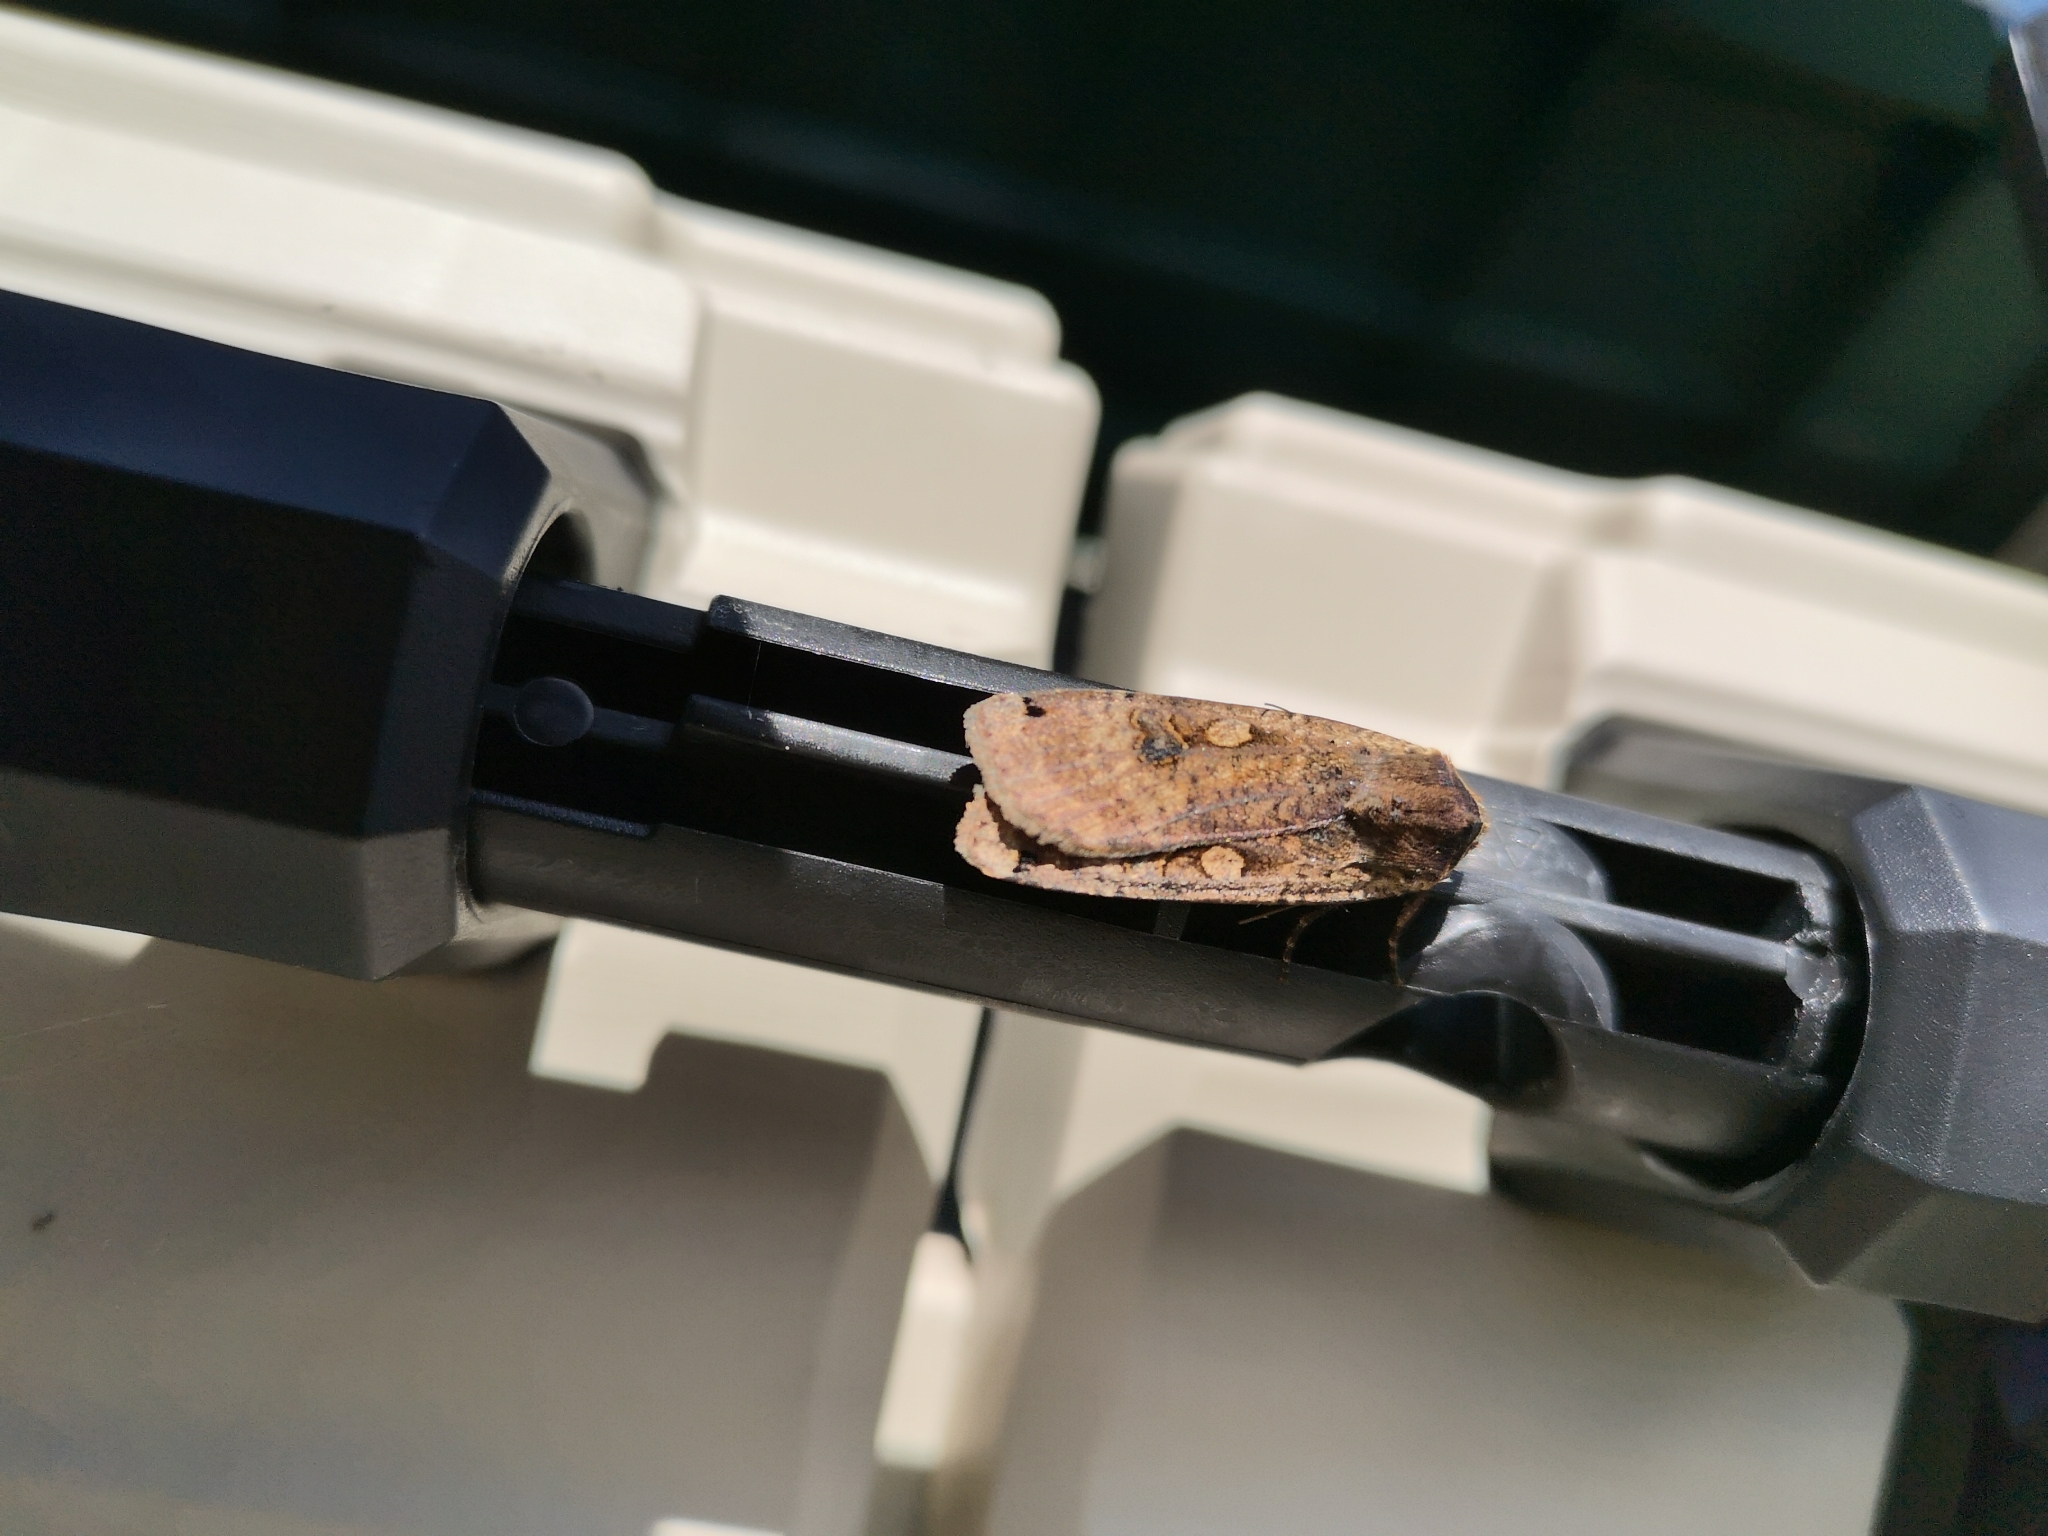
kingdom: Animalia
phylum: Arthropoda
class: Insecta
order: Lepidoptera
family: Noctuidae
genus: Noctua
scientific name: Noctua pronuba
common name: Large yellow underwing
